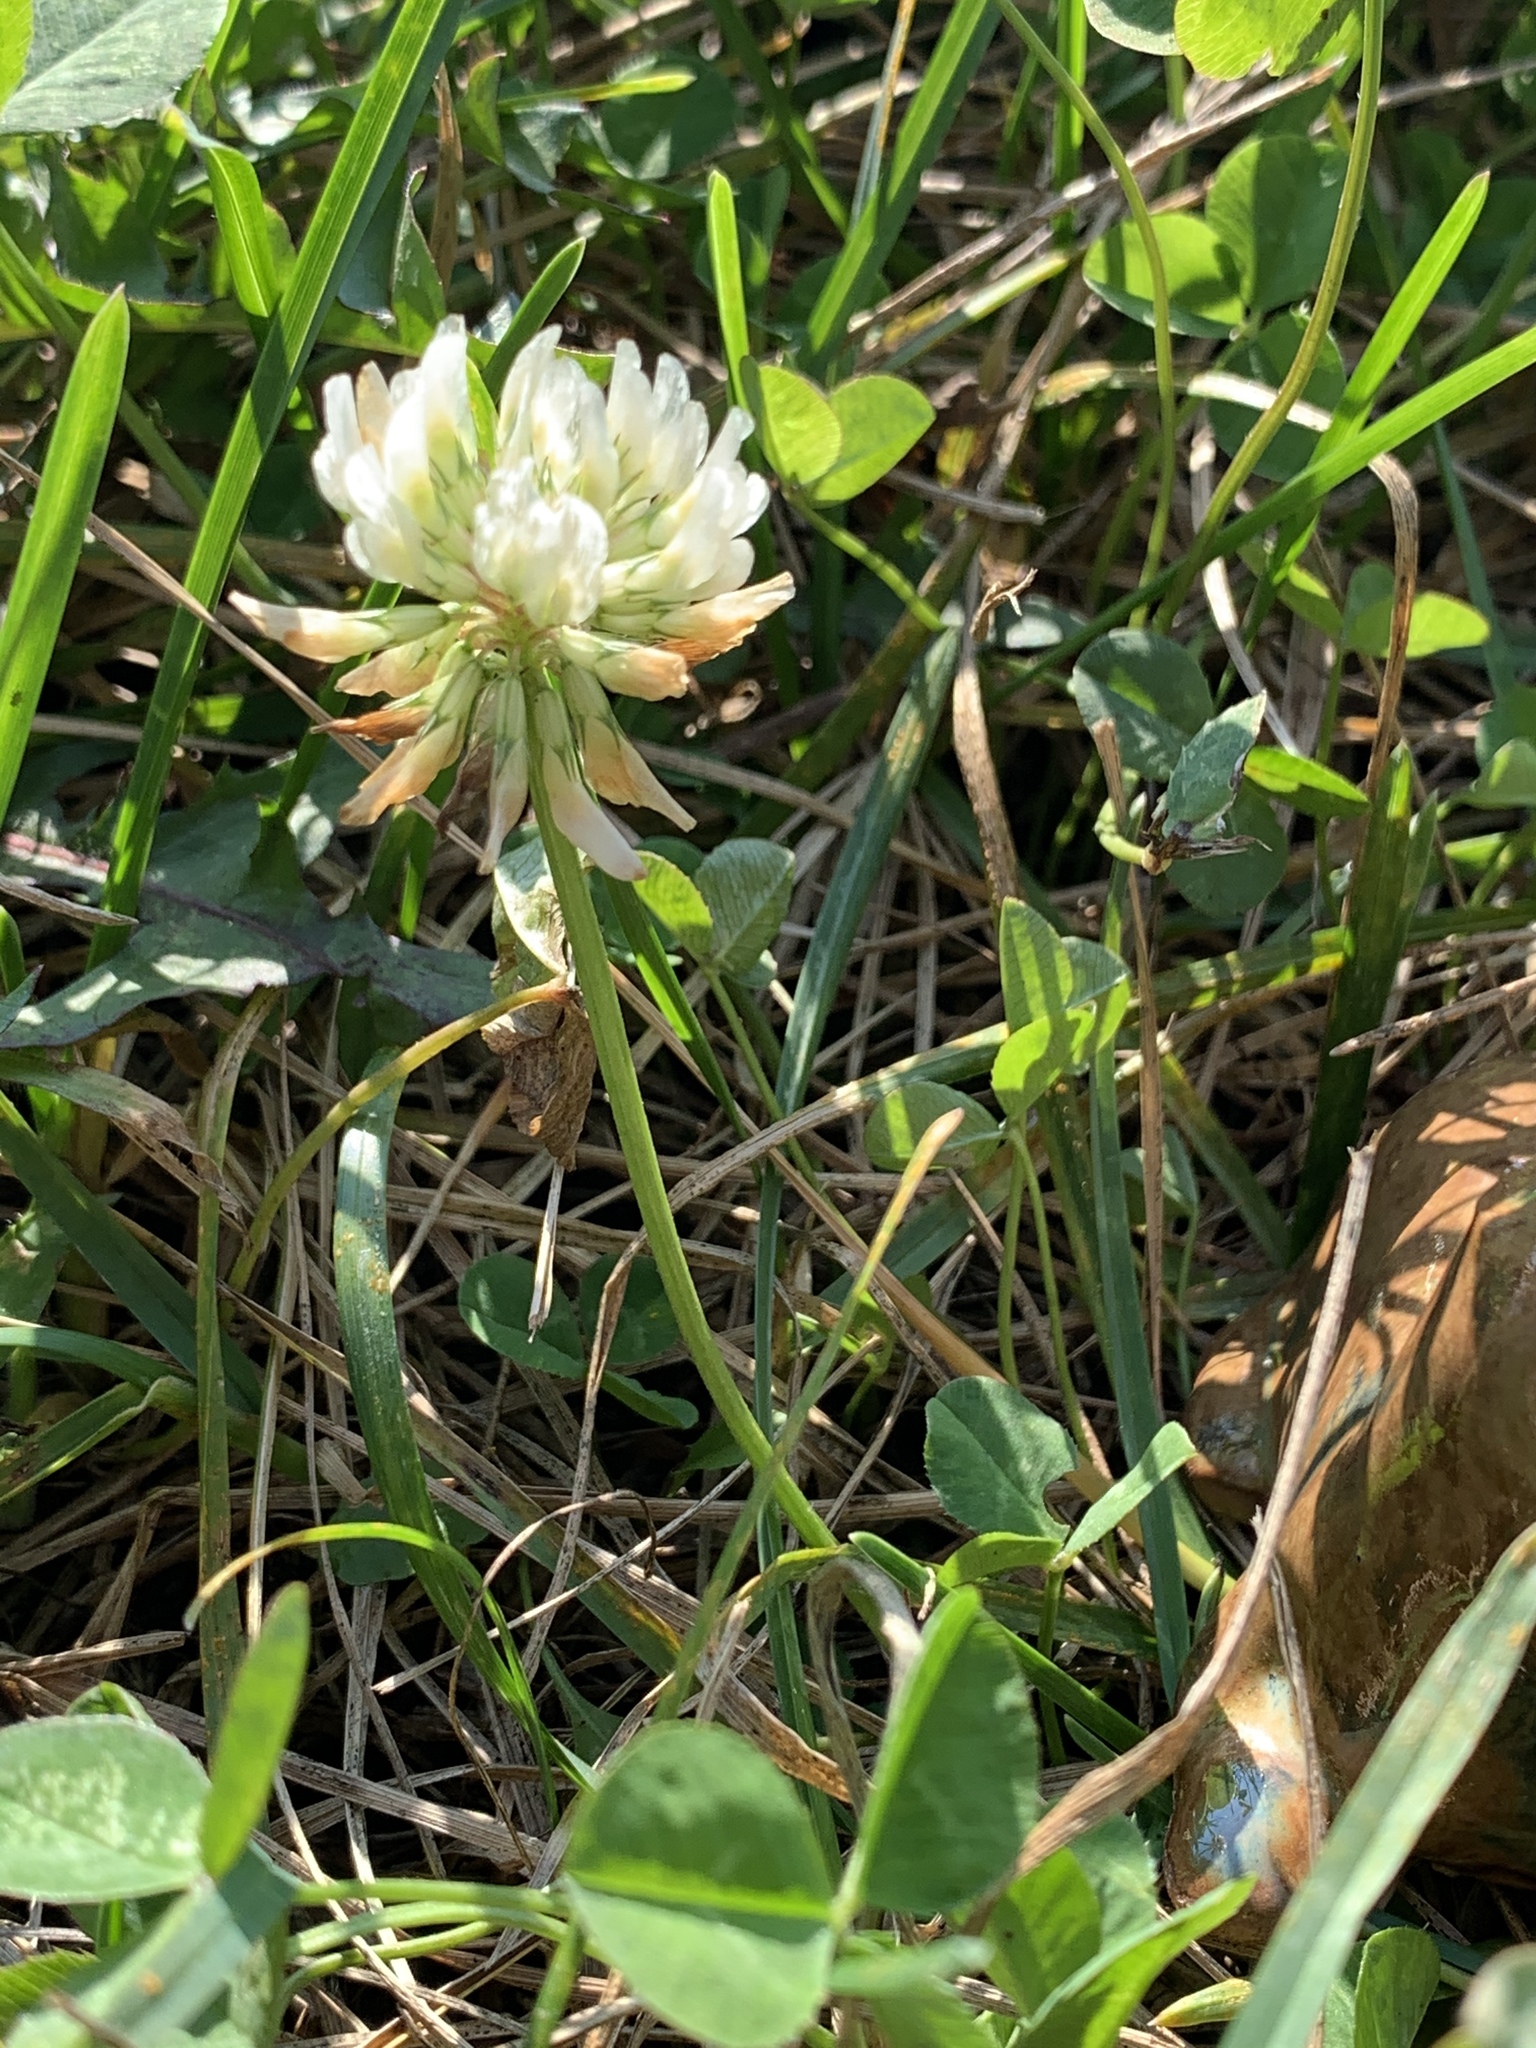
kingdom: Plantae
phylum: Tracheophyta
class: Magnoliopsida
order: Fabales
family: Fabaceae
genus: Trifolium
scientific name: Trifolium repens
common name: White clover
